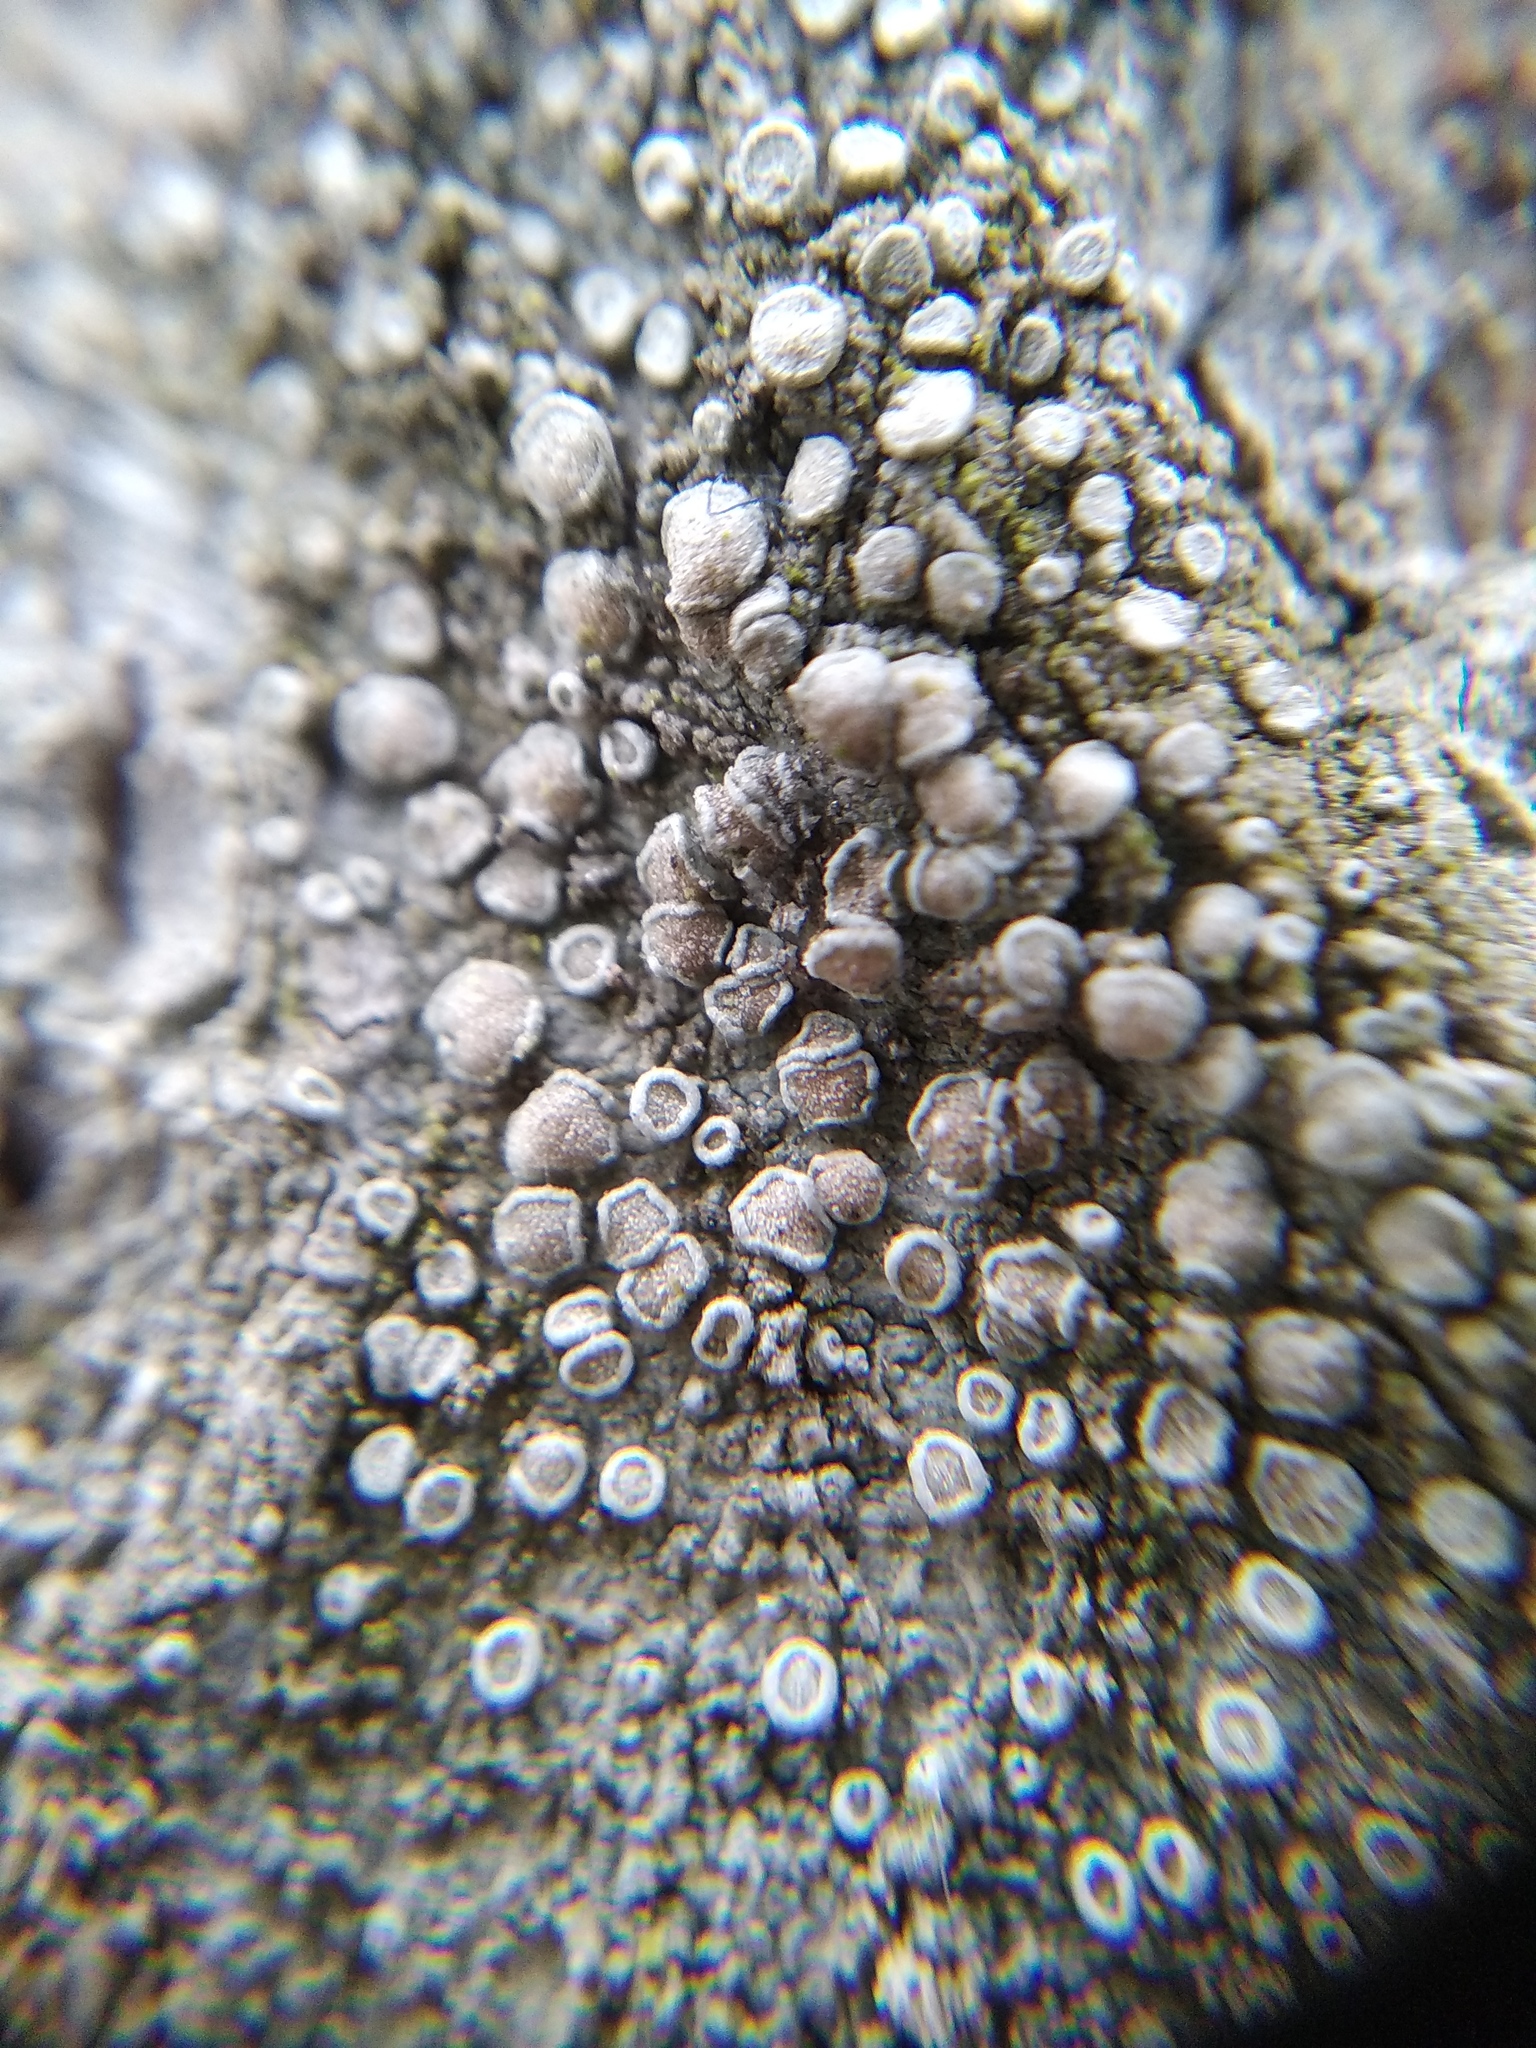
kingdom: Fungi
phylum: Ascomycota
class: Lecanoromycetes
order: Lecanorales
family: Lecanoraceae
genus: Glaucomaria
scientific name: Glaucomaria carpinea
